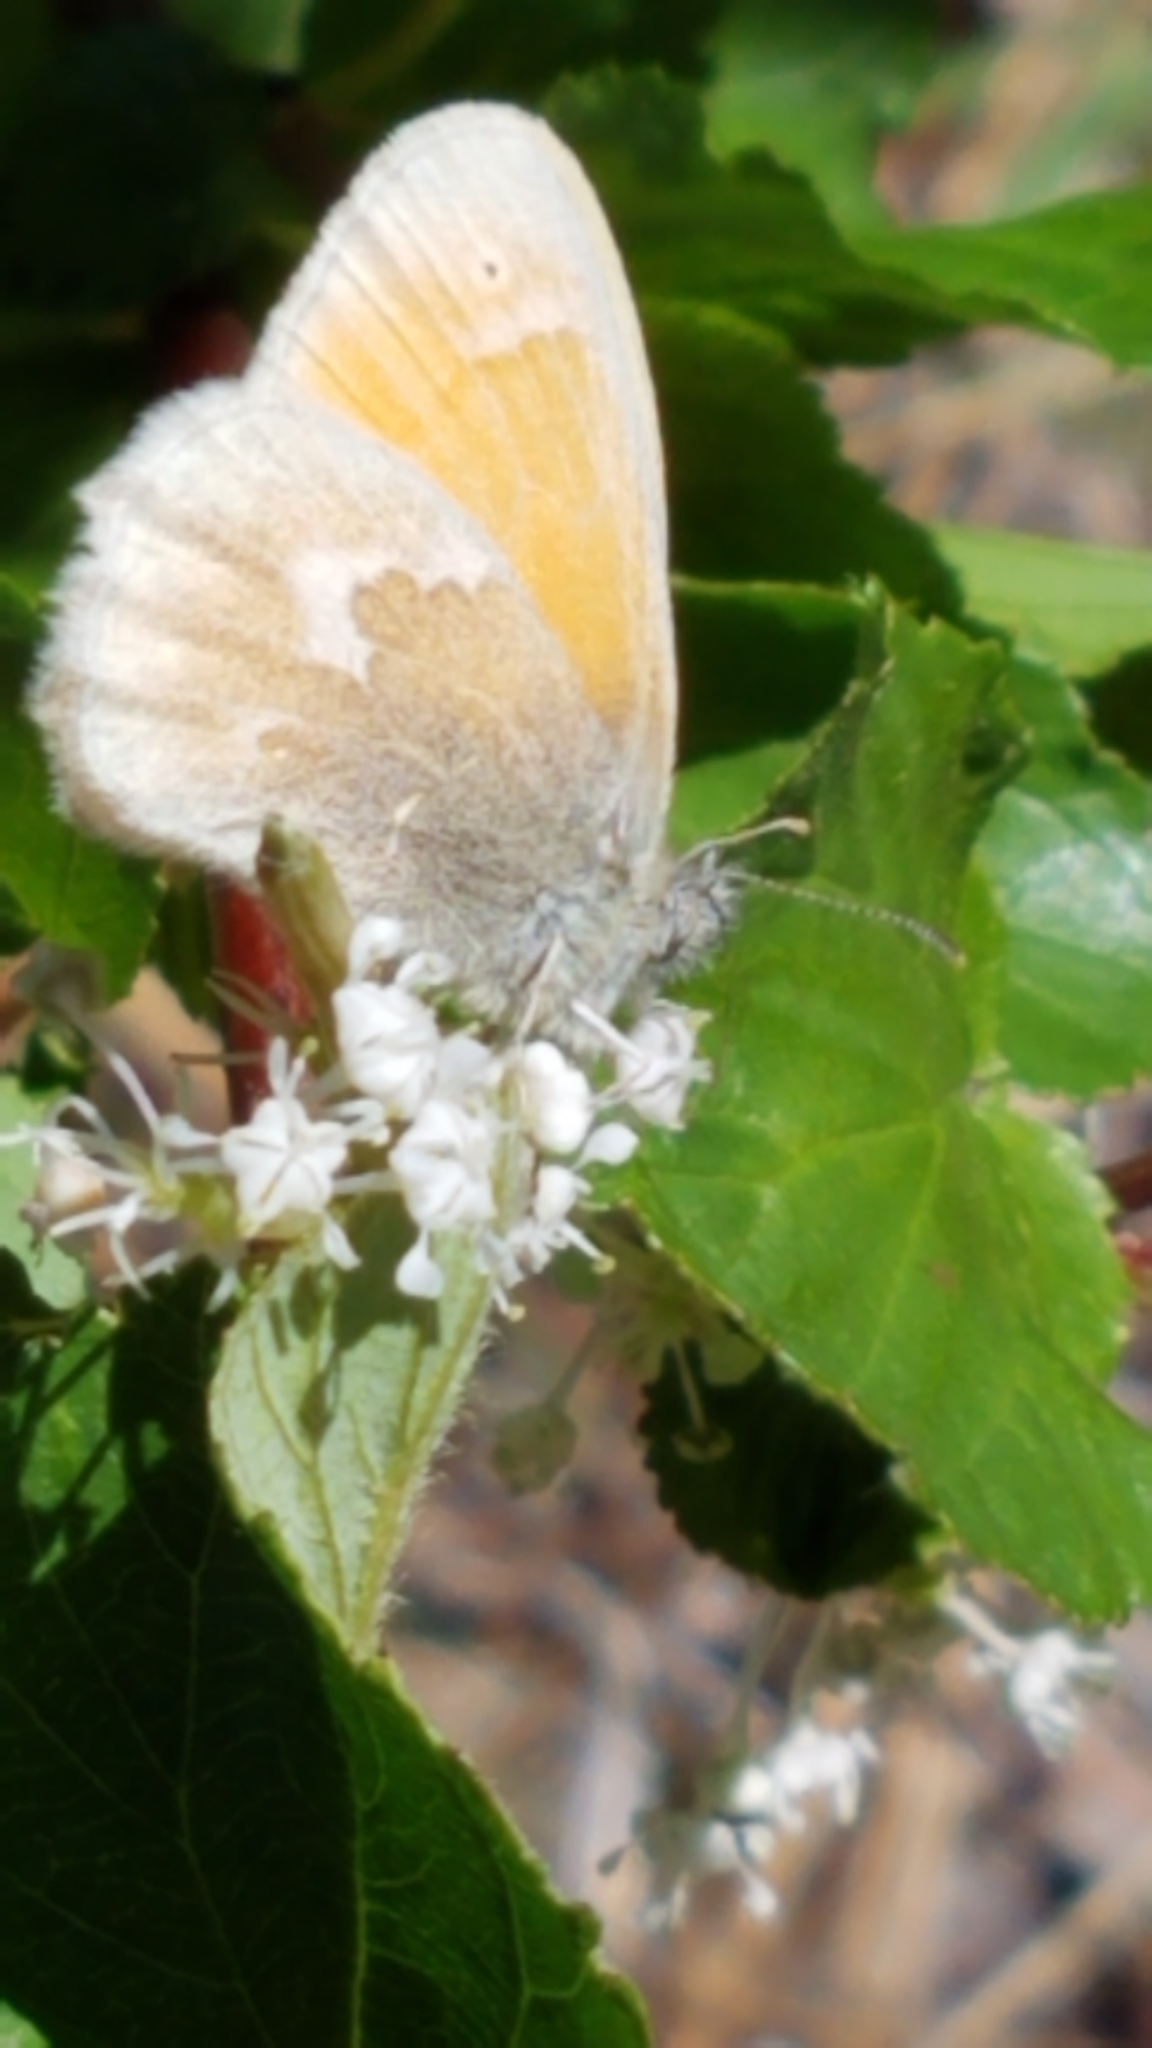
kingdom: Animalia
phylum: Arthropoda
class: Insecta
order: Lepidoptera
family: Nymphalidae
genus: Coenonympha
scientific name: Coenonympha california
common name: Common ringlet
